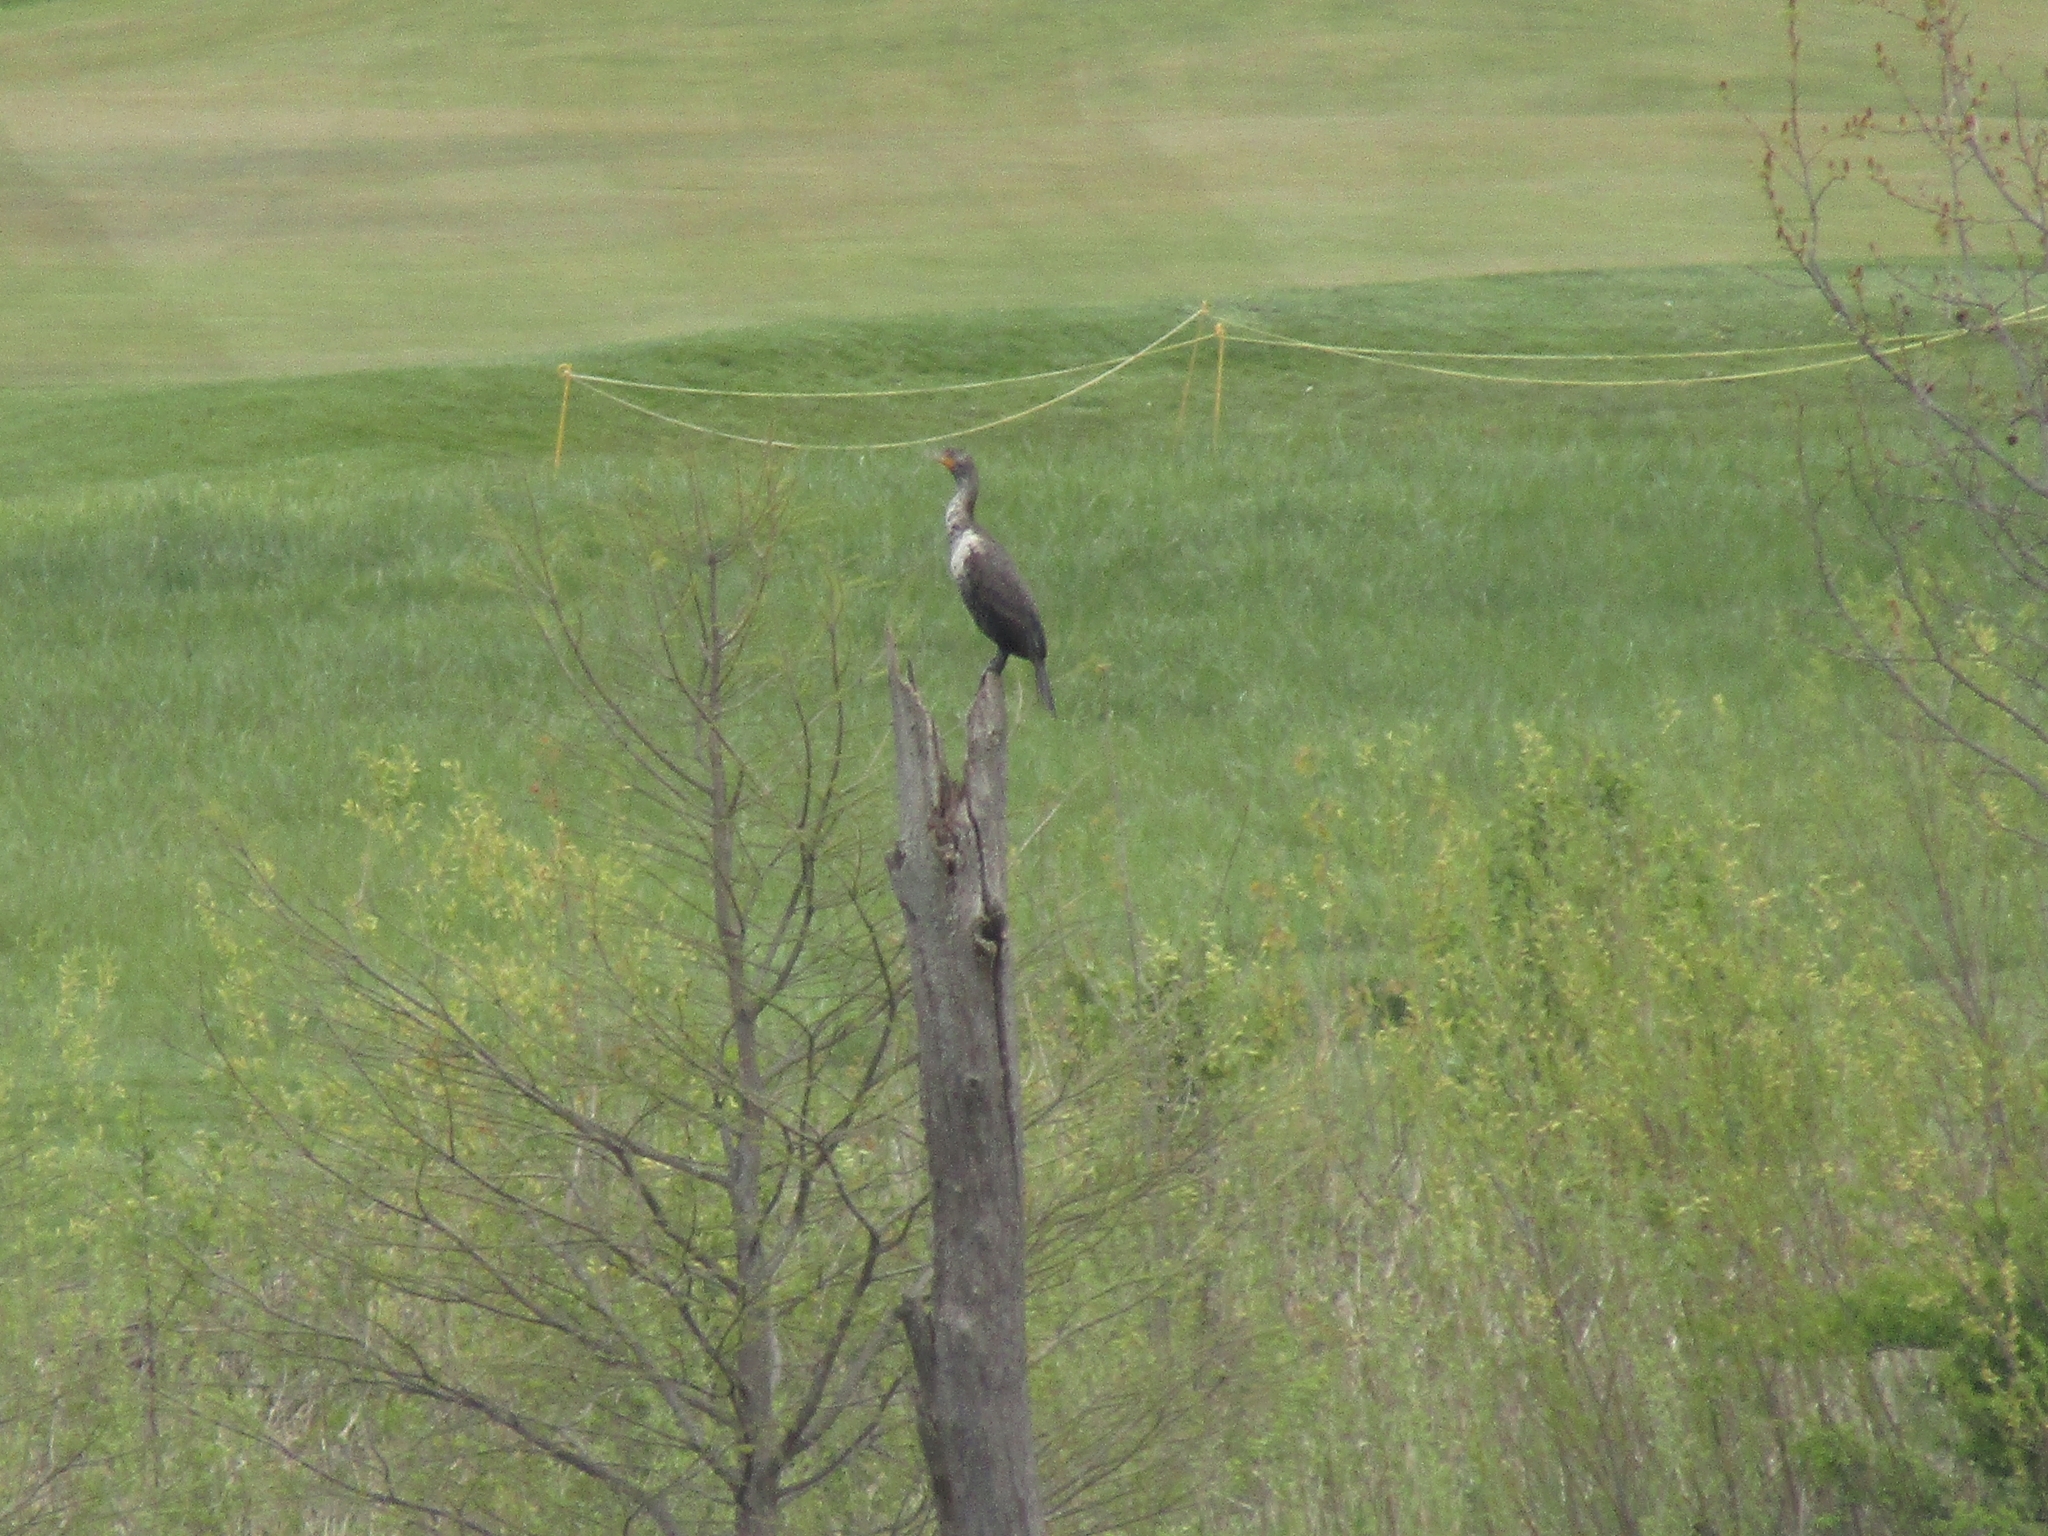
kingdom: Animalia
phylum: Chordata
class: Aves
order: Suliformes
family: Phalacrocoracidae
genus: Phalacrocorax
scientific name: Phalacrocorax auritus
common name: Double-crested cormorant
